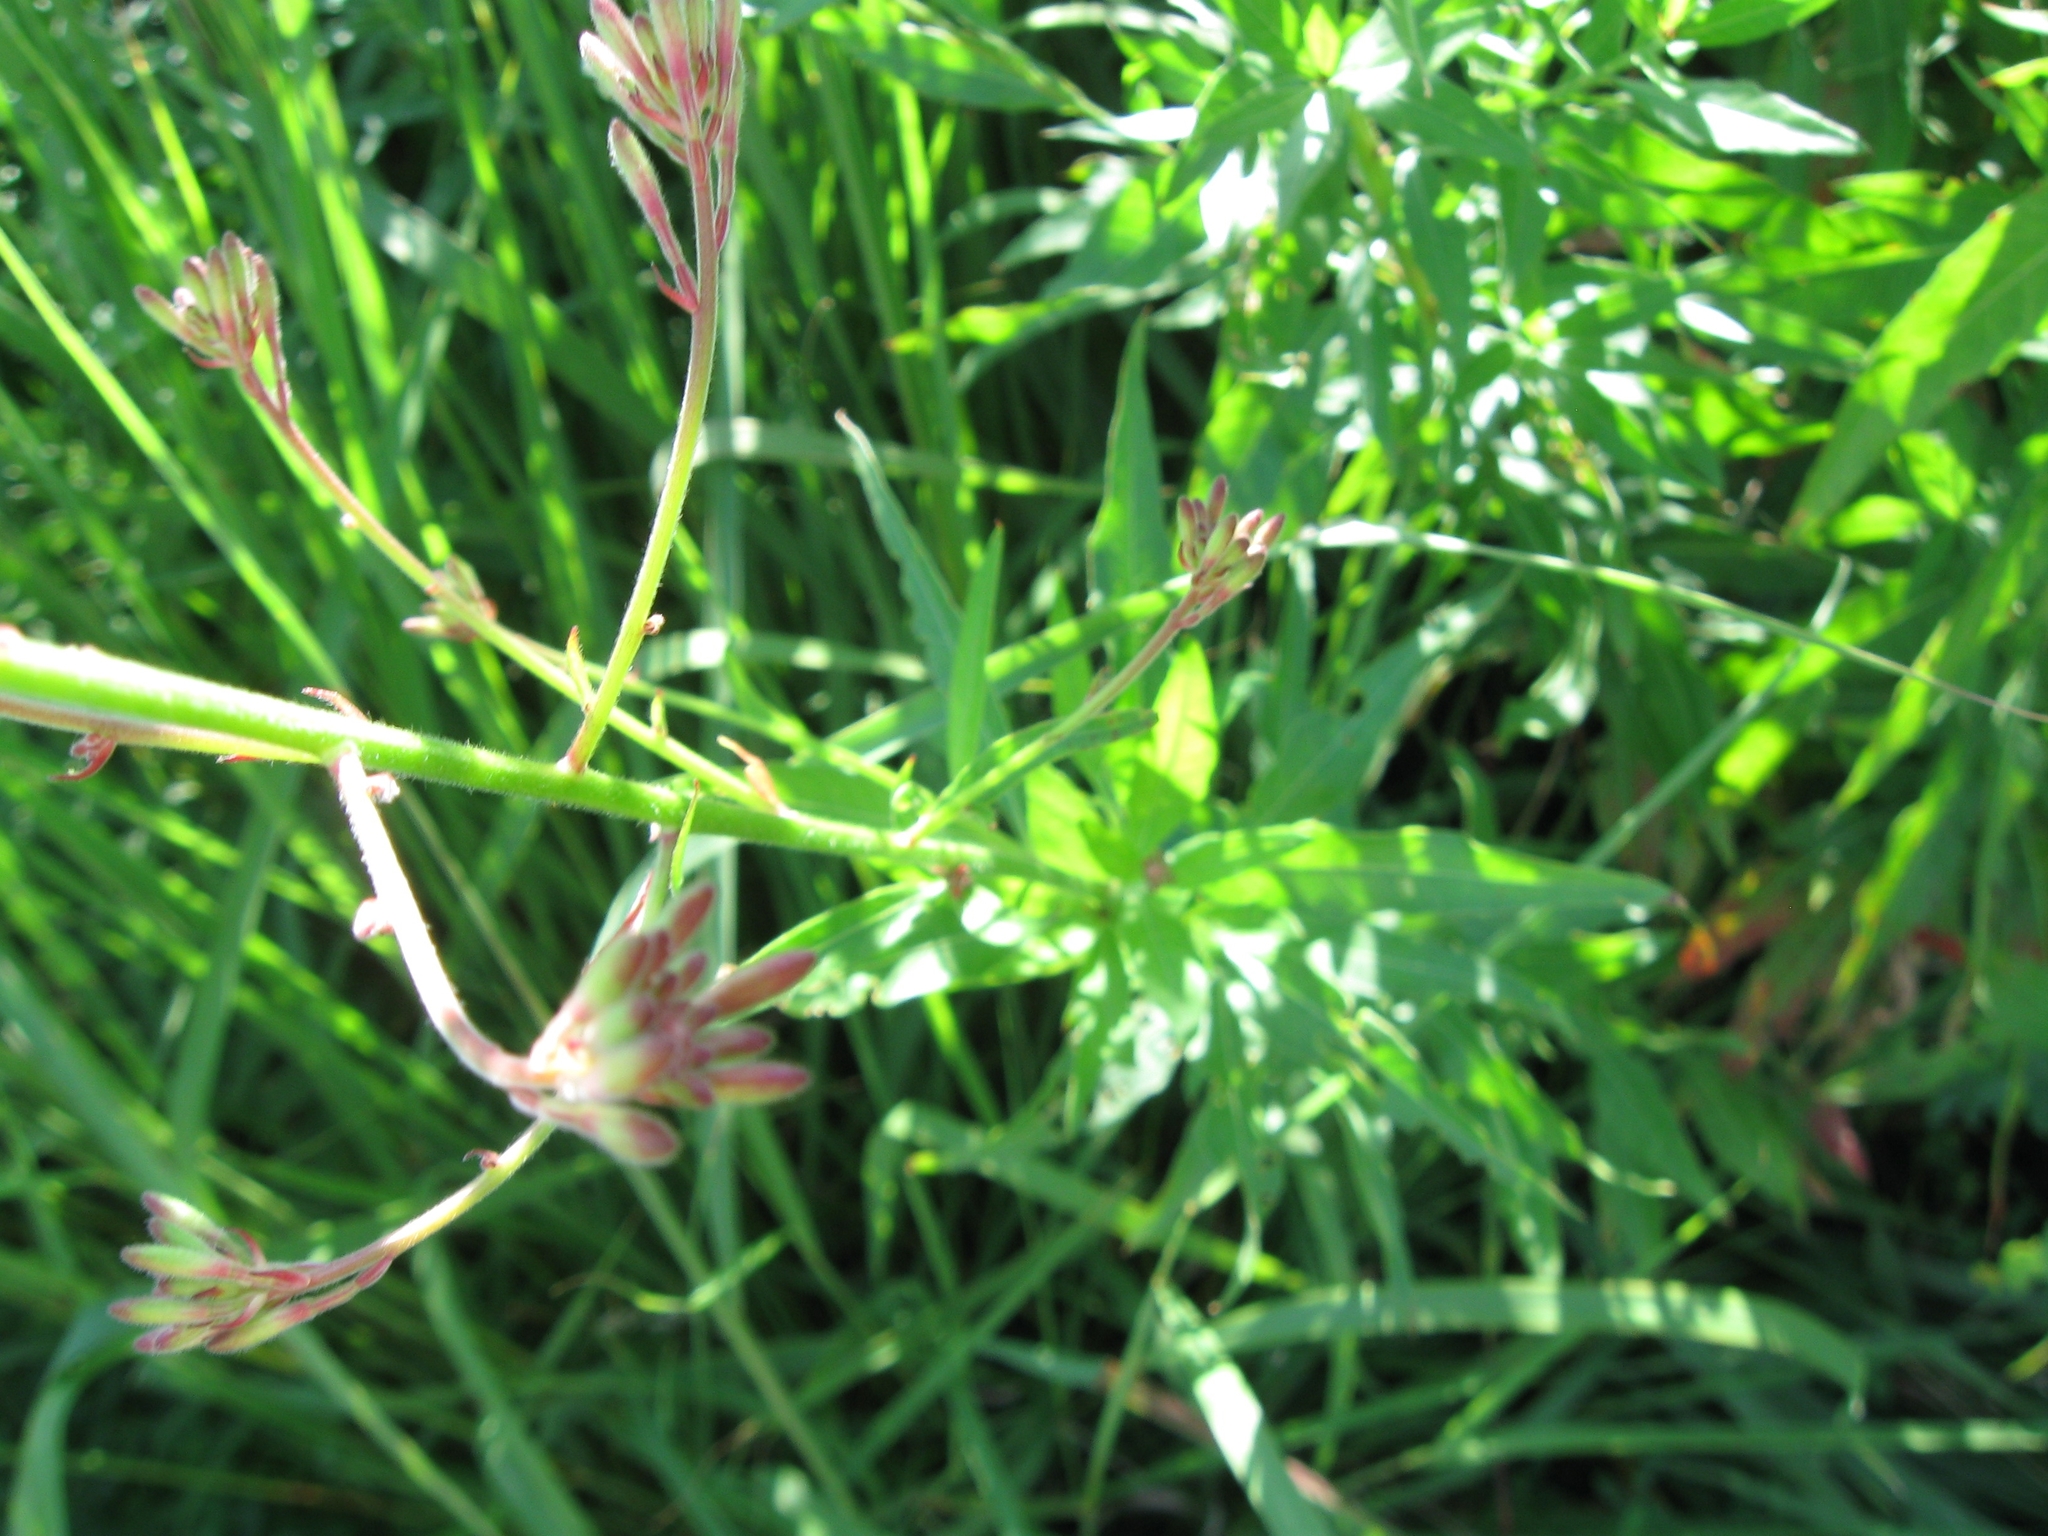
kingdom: Plantae
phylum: Tracheophyta
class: Magnoliopsida
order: Myrtales
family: Onagraceae
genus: Oenothera
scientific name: Oenothera gaura
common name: Biennial beeblossom
